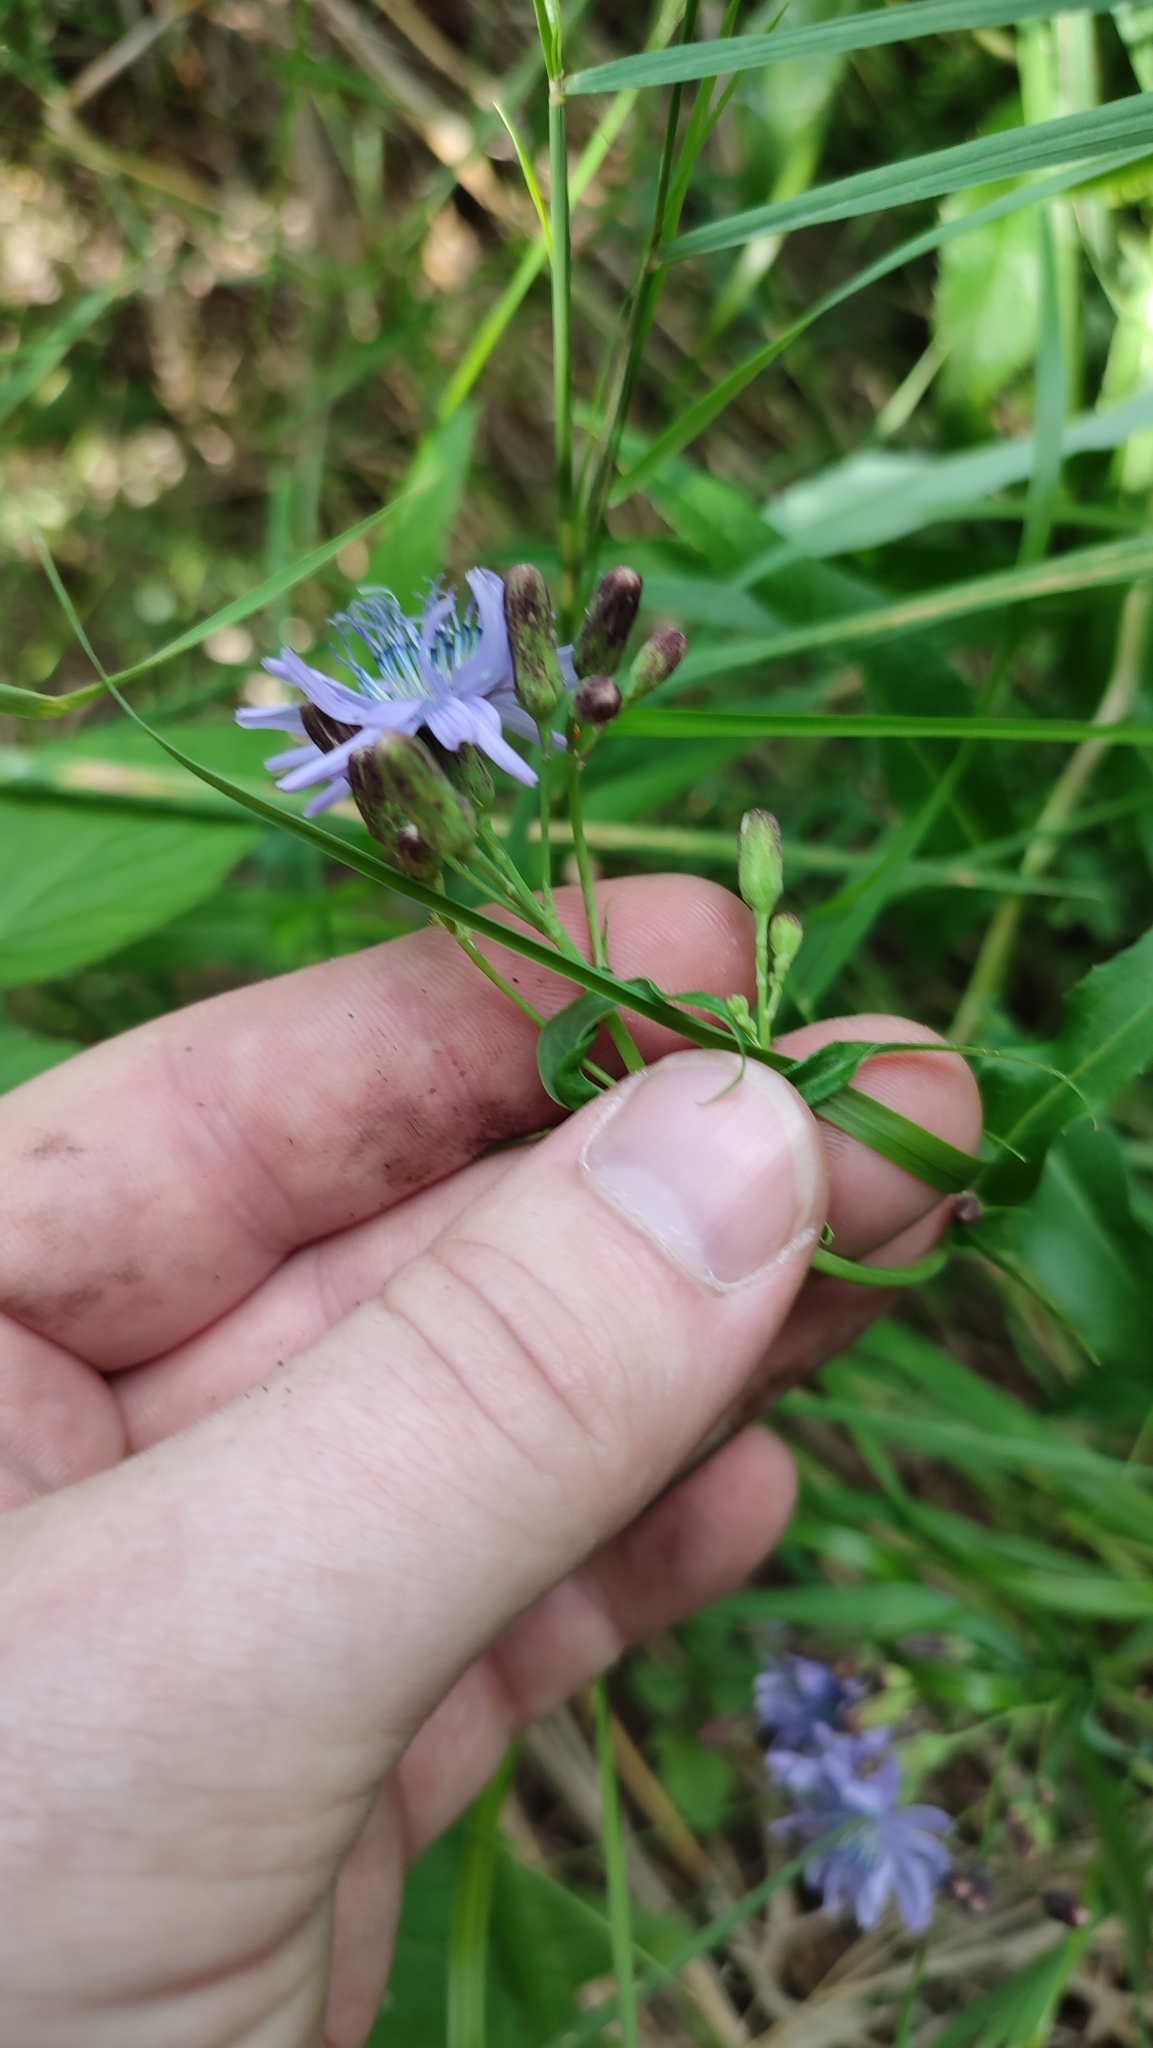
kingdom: Plantae
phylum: Tracheophyta
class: Magnoliopsida
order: Asterales
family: Asteraceae
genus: Lactuca
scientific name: Lactuca sibirica
